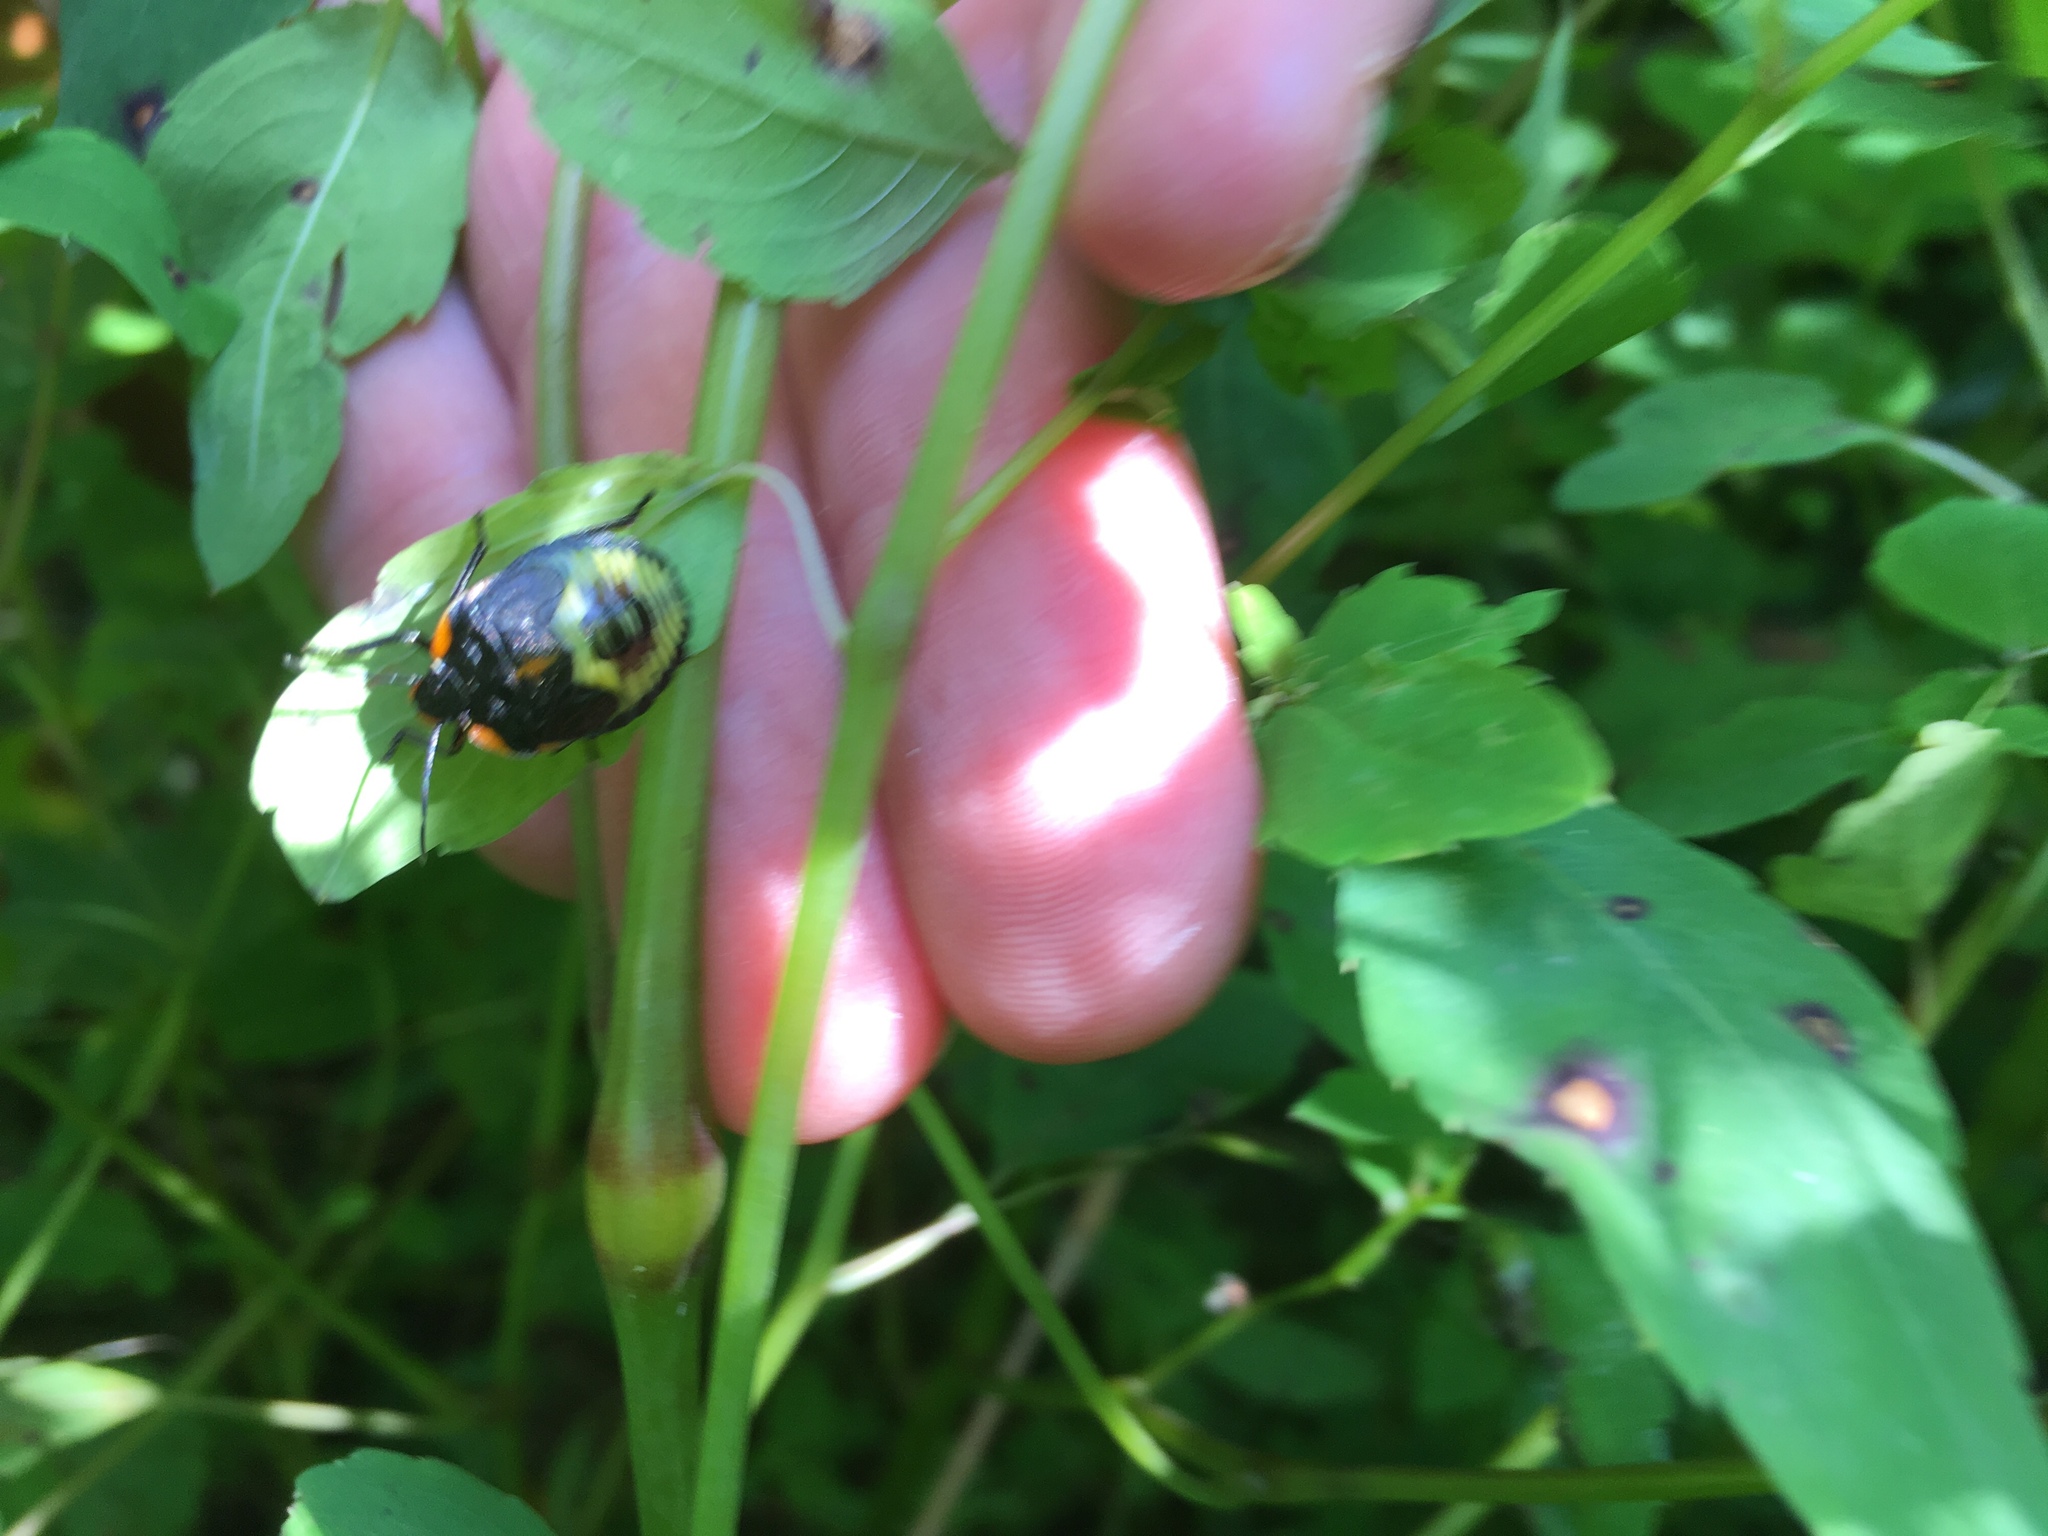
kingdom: Animalia
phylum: Arthropoda
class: Insecta
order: Hemiptera
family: Pentatomidae
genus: Chinavia
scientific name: Chinavia hilaris
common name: Green stink bug
